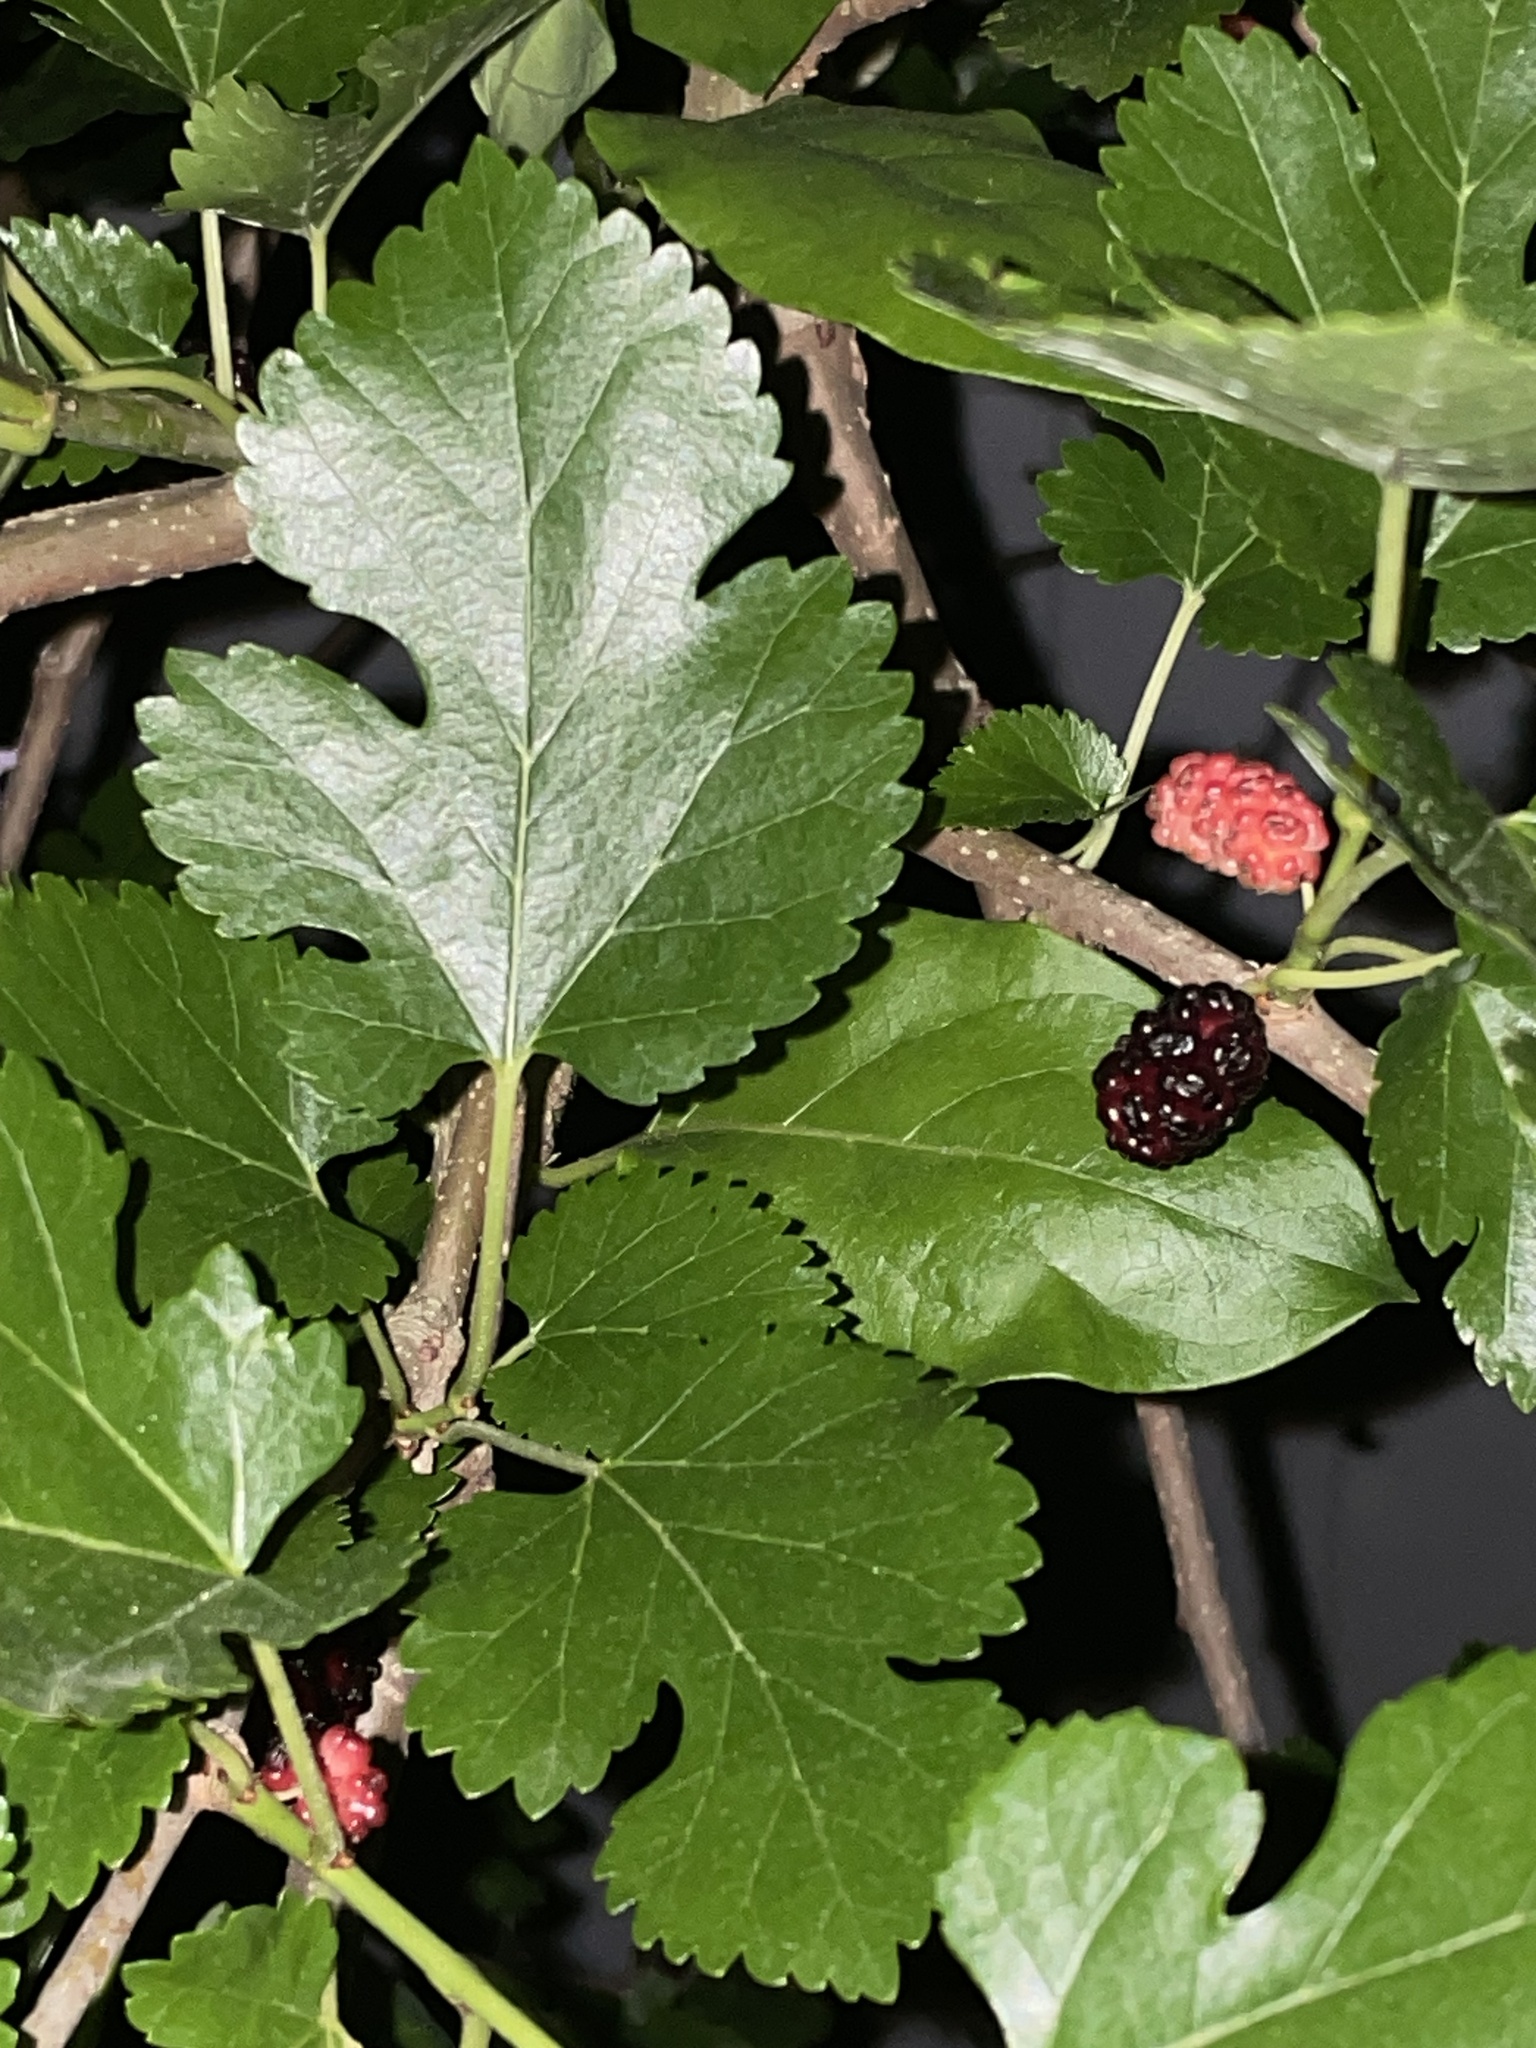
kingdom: Plantae
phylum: Tracheophyta
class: Magnoliopsida
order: Rosales
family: Moraceae
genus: Morus
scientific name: Morus alba
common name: White mulberry
